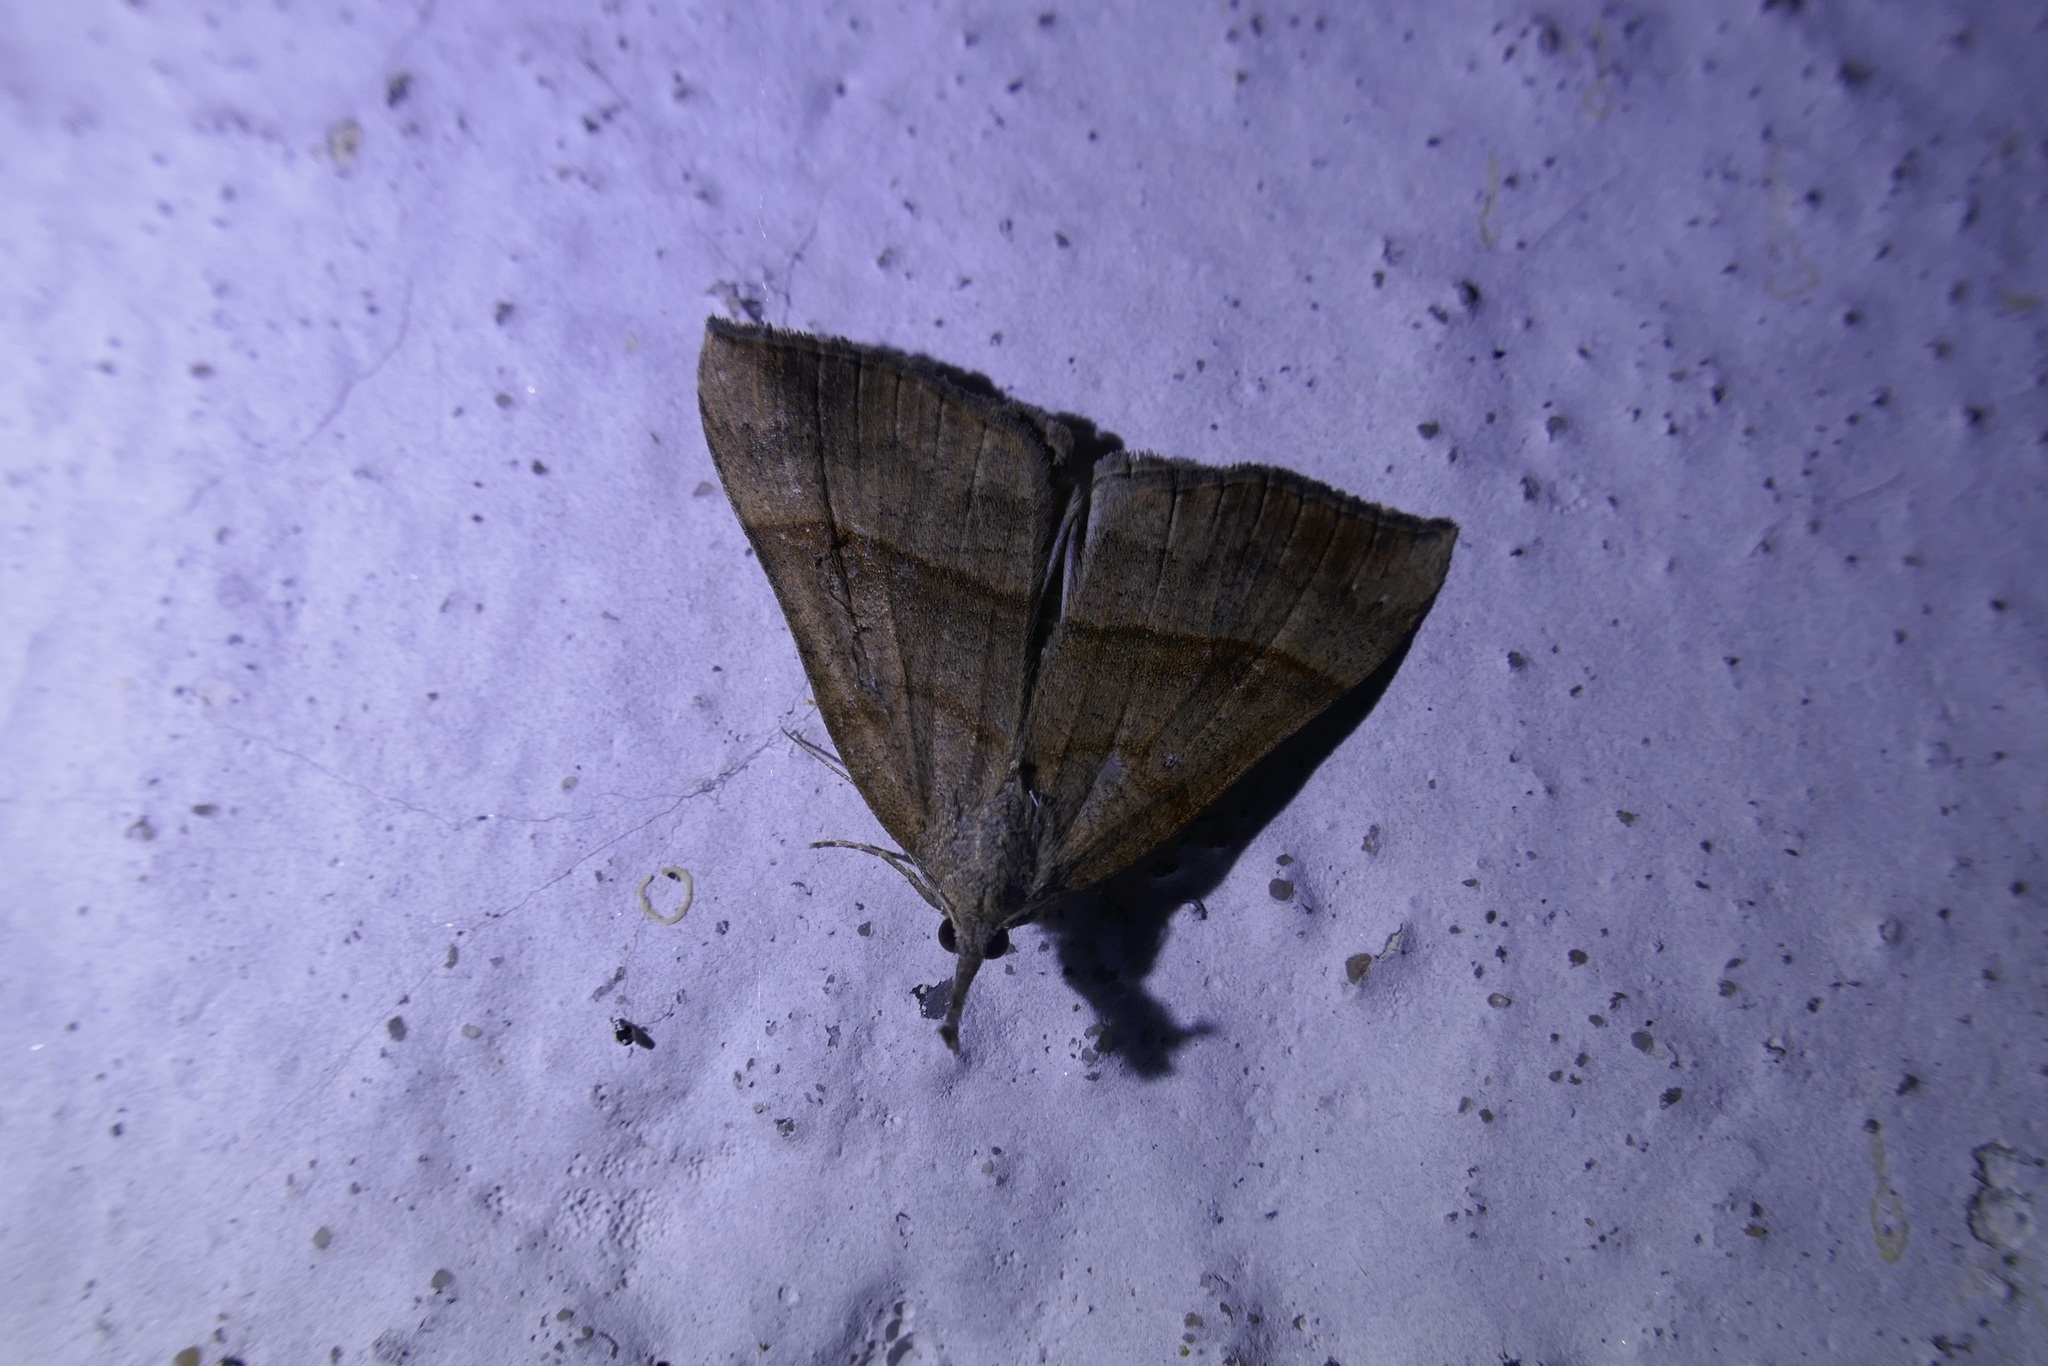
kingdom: Animalia
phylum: Arthropoda
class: Insecta
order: Lepidoptera
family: Erebidae
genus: Hypena
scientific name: Hypena proboscidalis
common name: Snout
